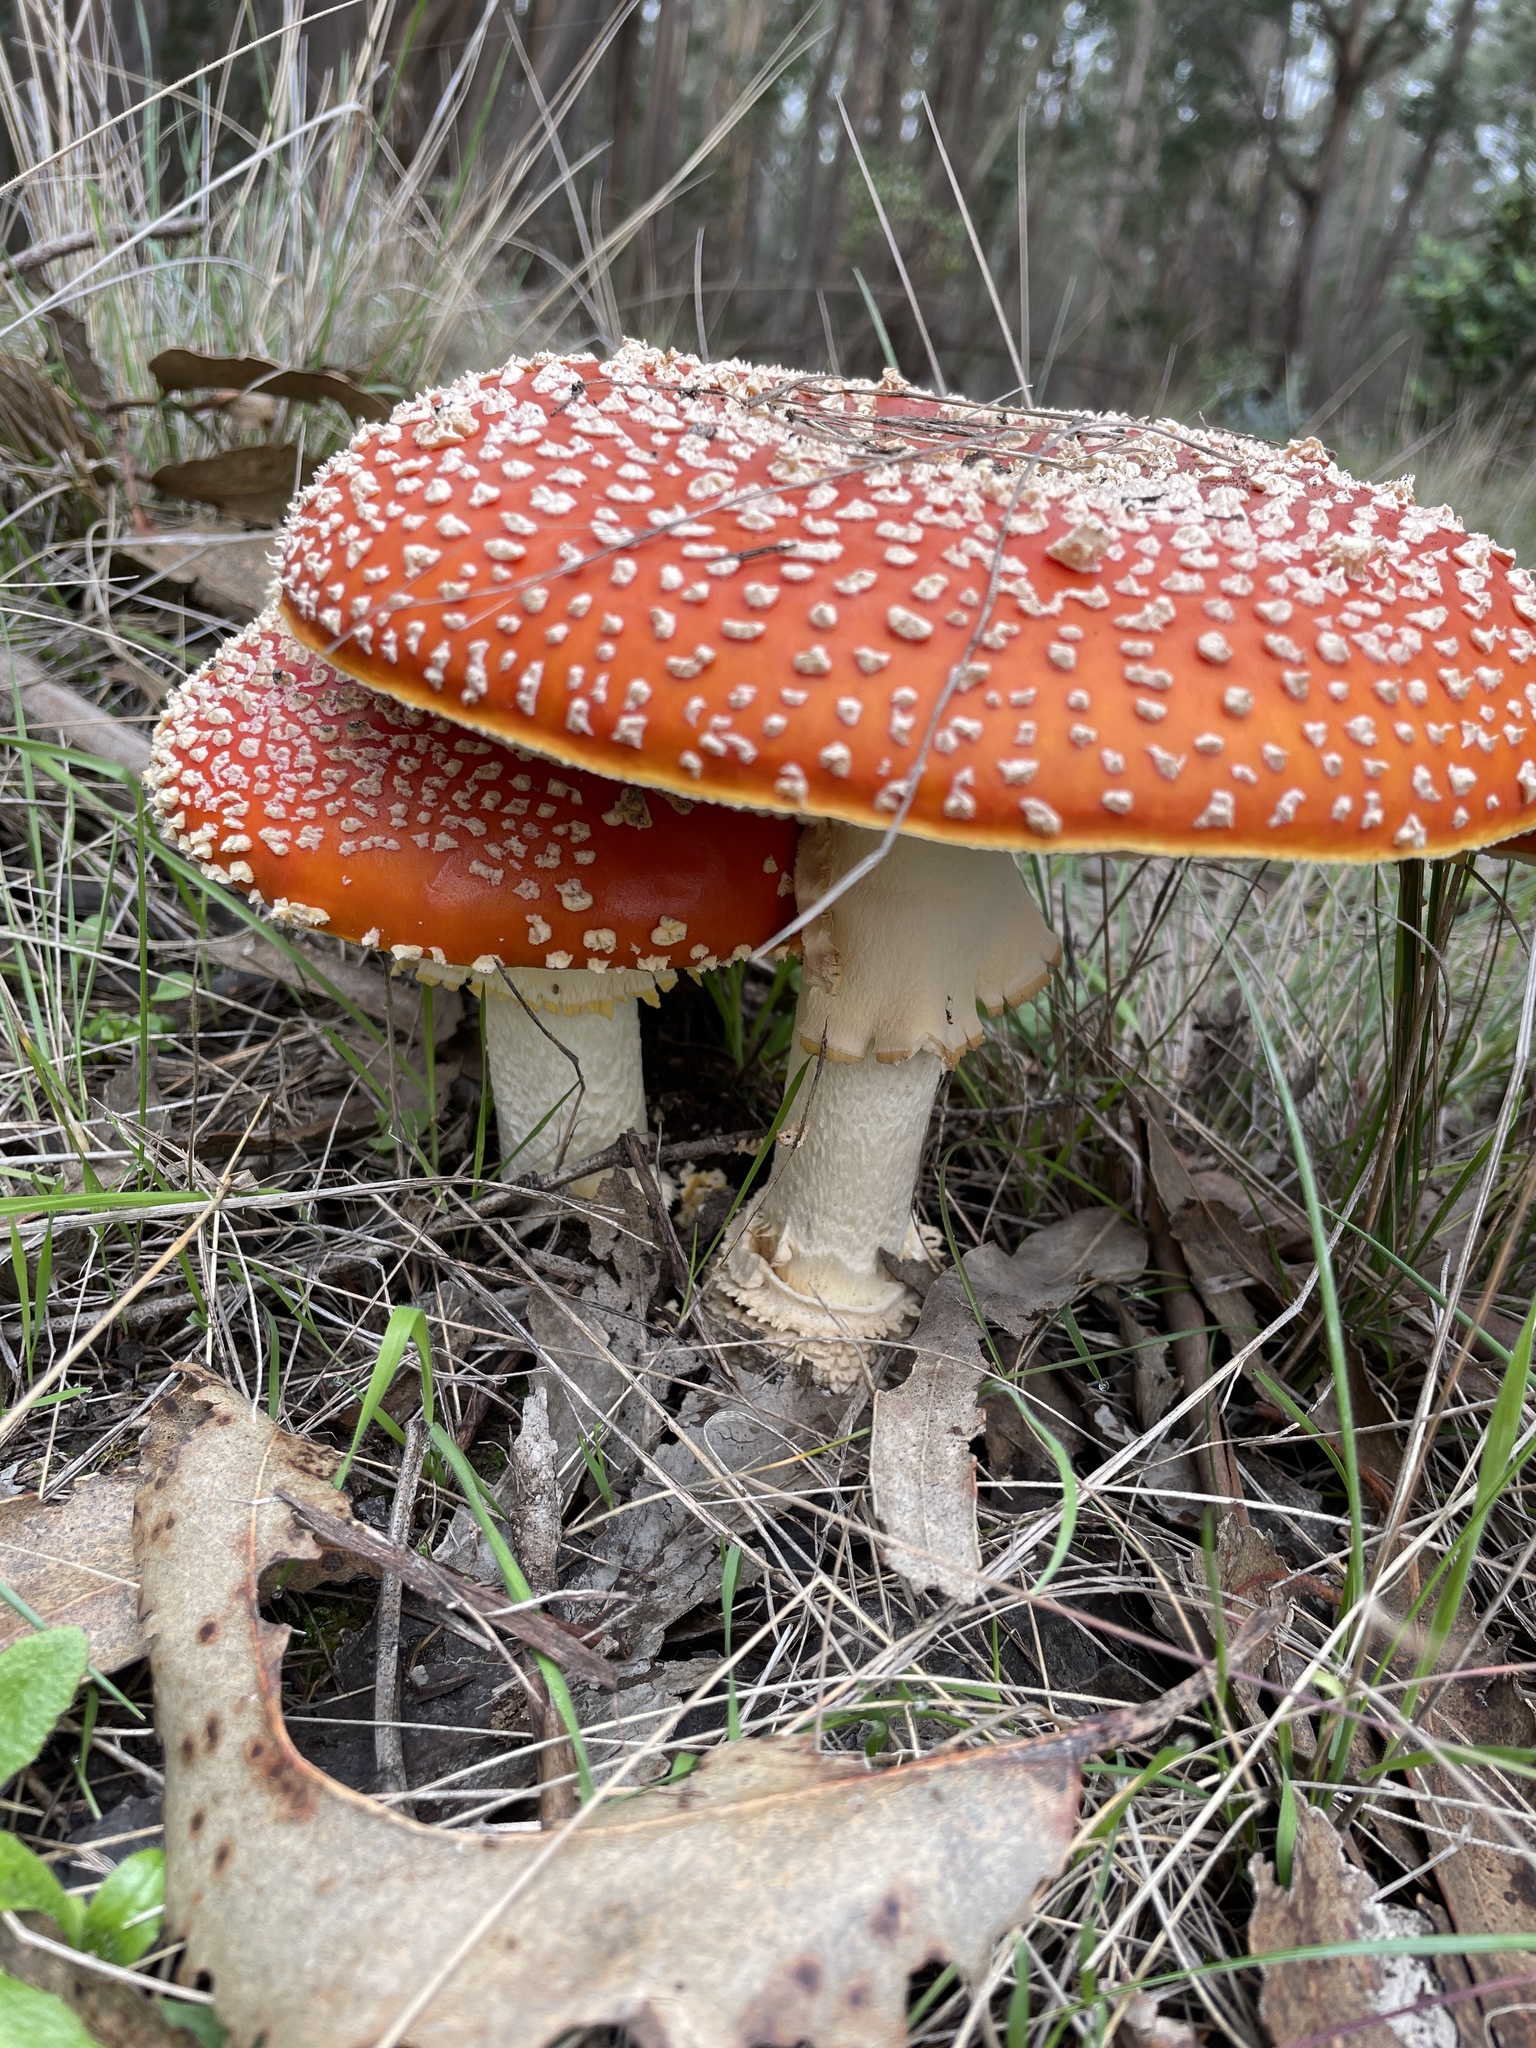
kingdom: Fungi
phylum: Basidiomycota
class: Agaricomycetes
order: Agaricales
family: Amanitaceae
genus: Amanita
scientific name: Amanita muscaria
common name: Fly agaric
